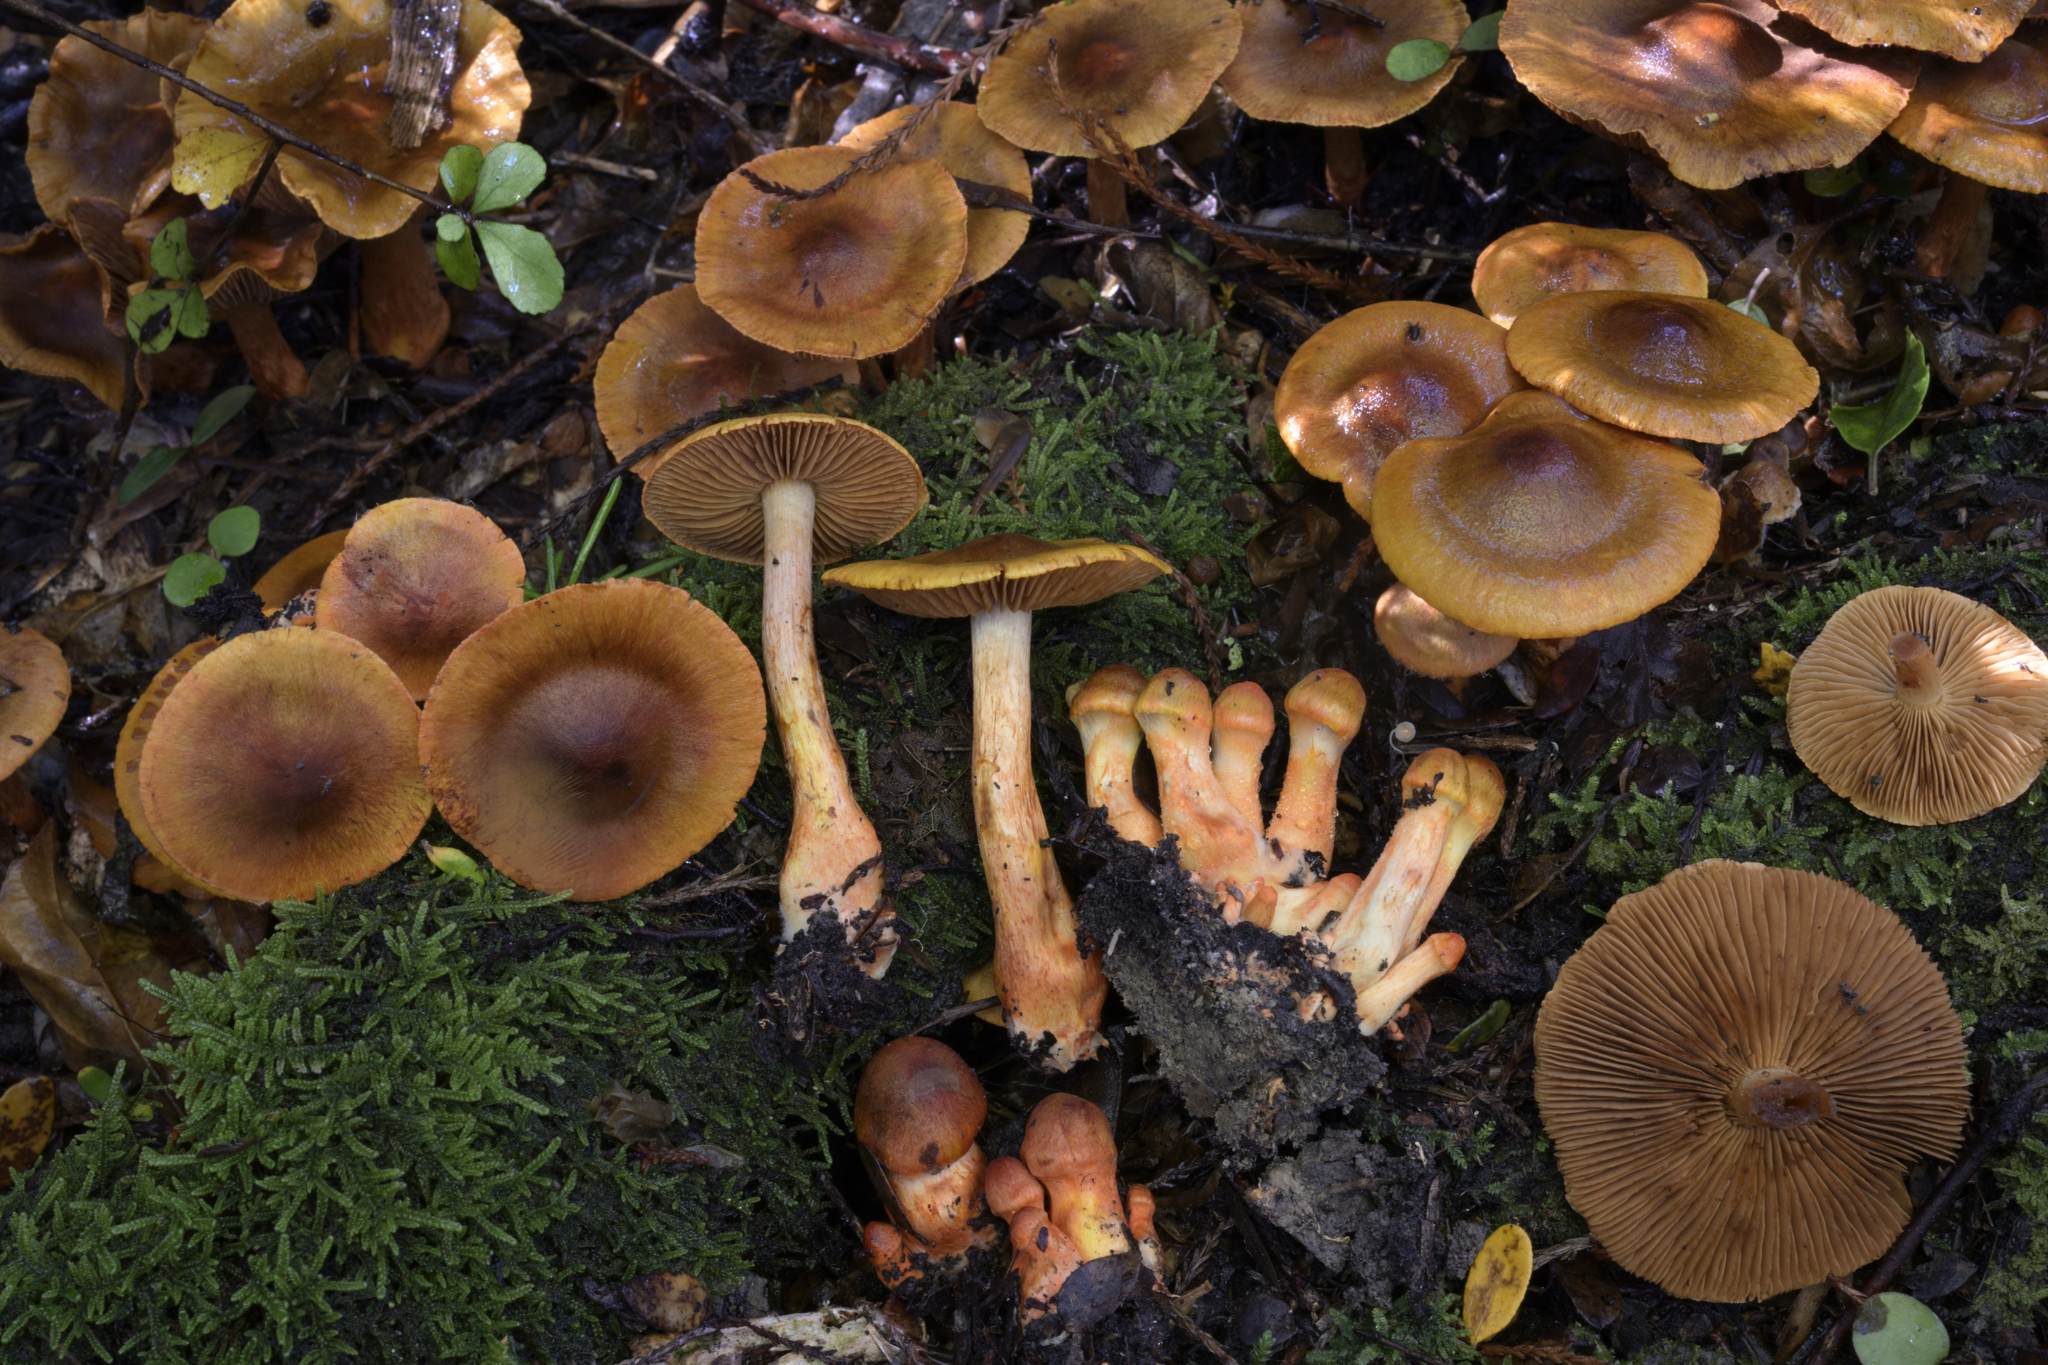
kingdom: Fungi
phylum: Basidiomycota
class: Agaricomycetes
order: Agaricales
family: Cortinariaceae
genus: Cortinarius
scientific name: Cortinarius promethenus
